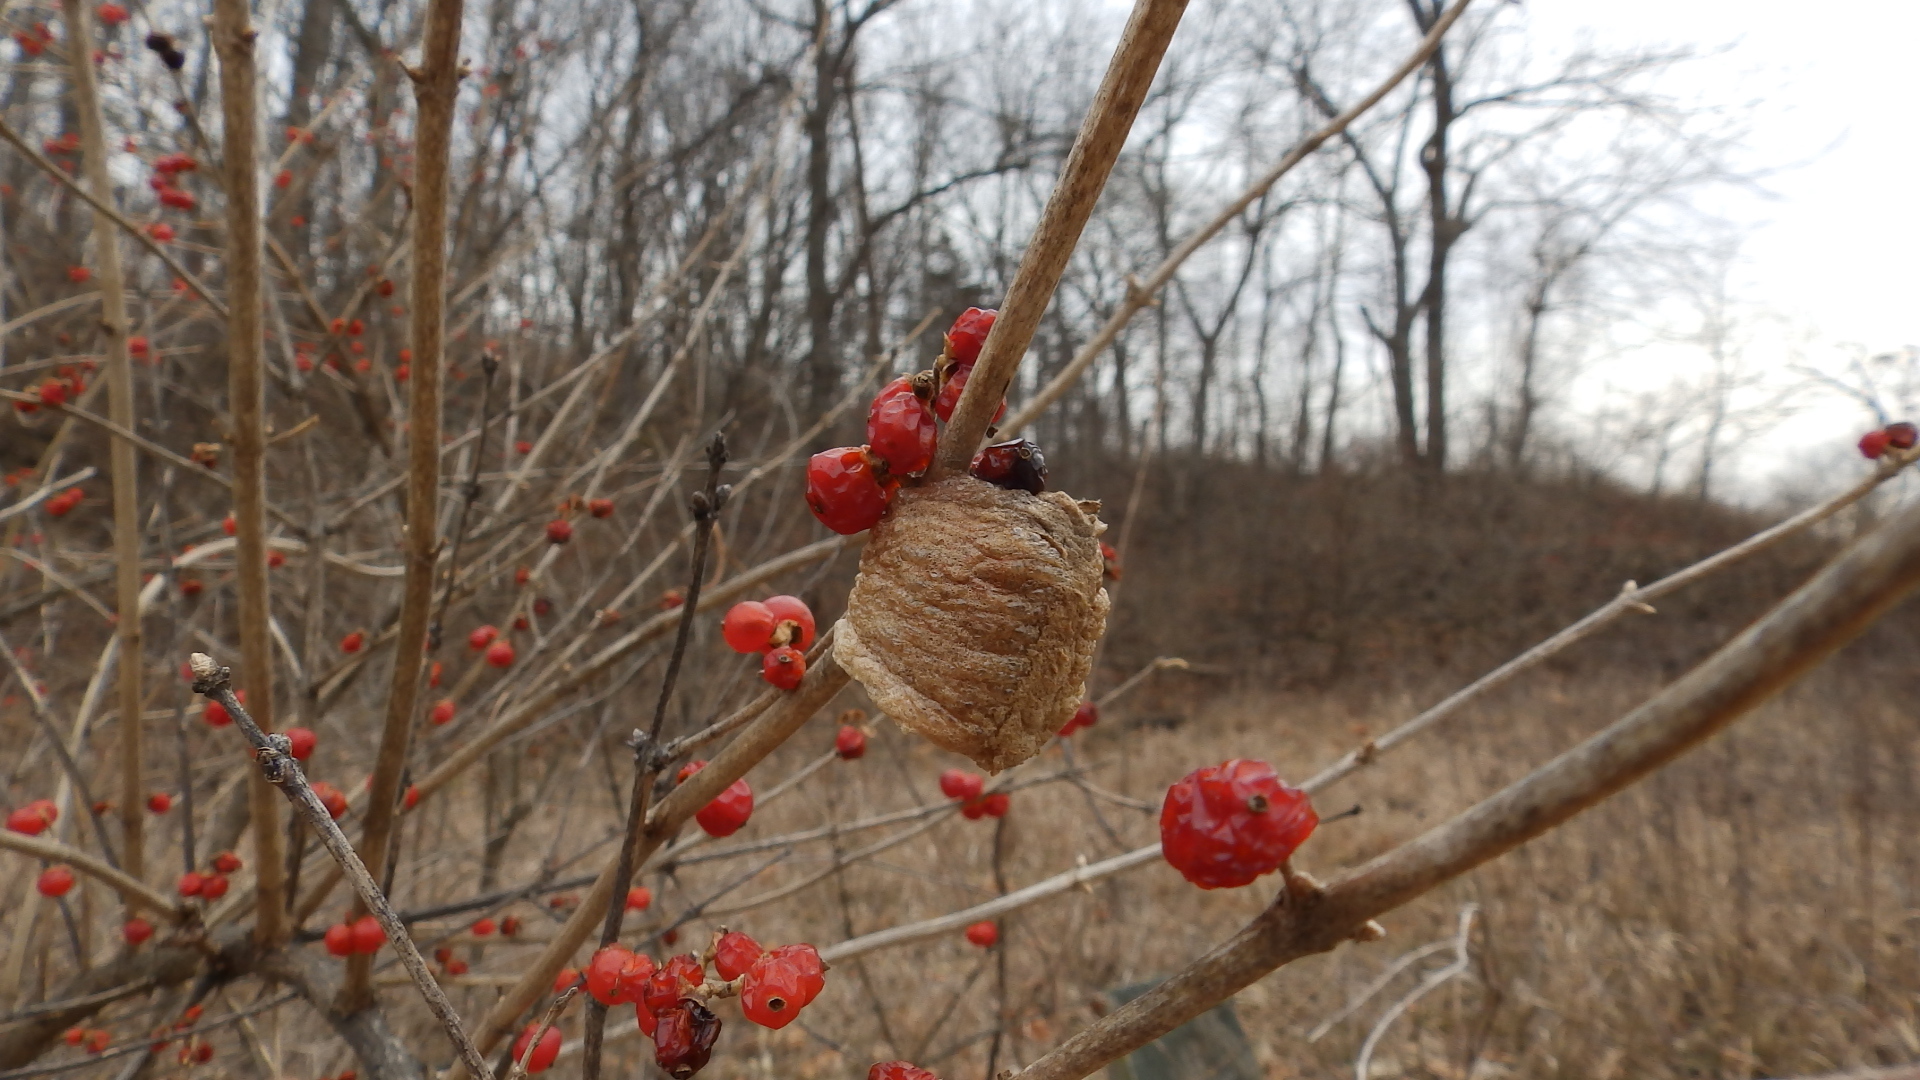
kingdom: Animalia
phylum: Arthropoda
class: Insecta
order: Mantodea
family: Mantidae
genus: Tenodera
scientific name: Tenodera sinensis
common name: Chinese mantis
